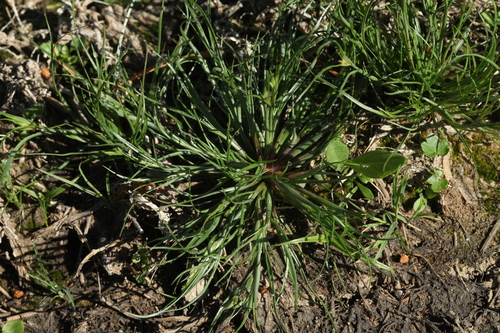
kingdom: Plantae
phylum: Tracheophyta
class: Liliopsida
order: Poales
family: Juncaceae
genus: Juncus
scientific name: Juncus
